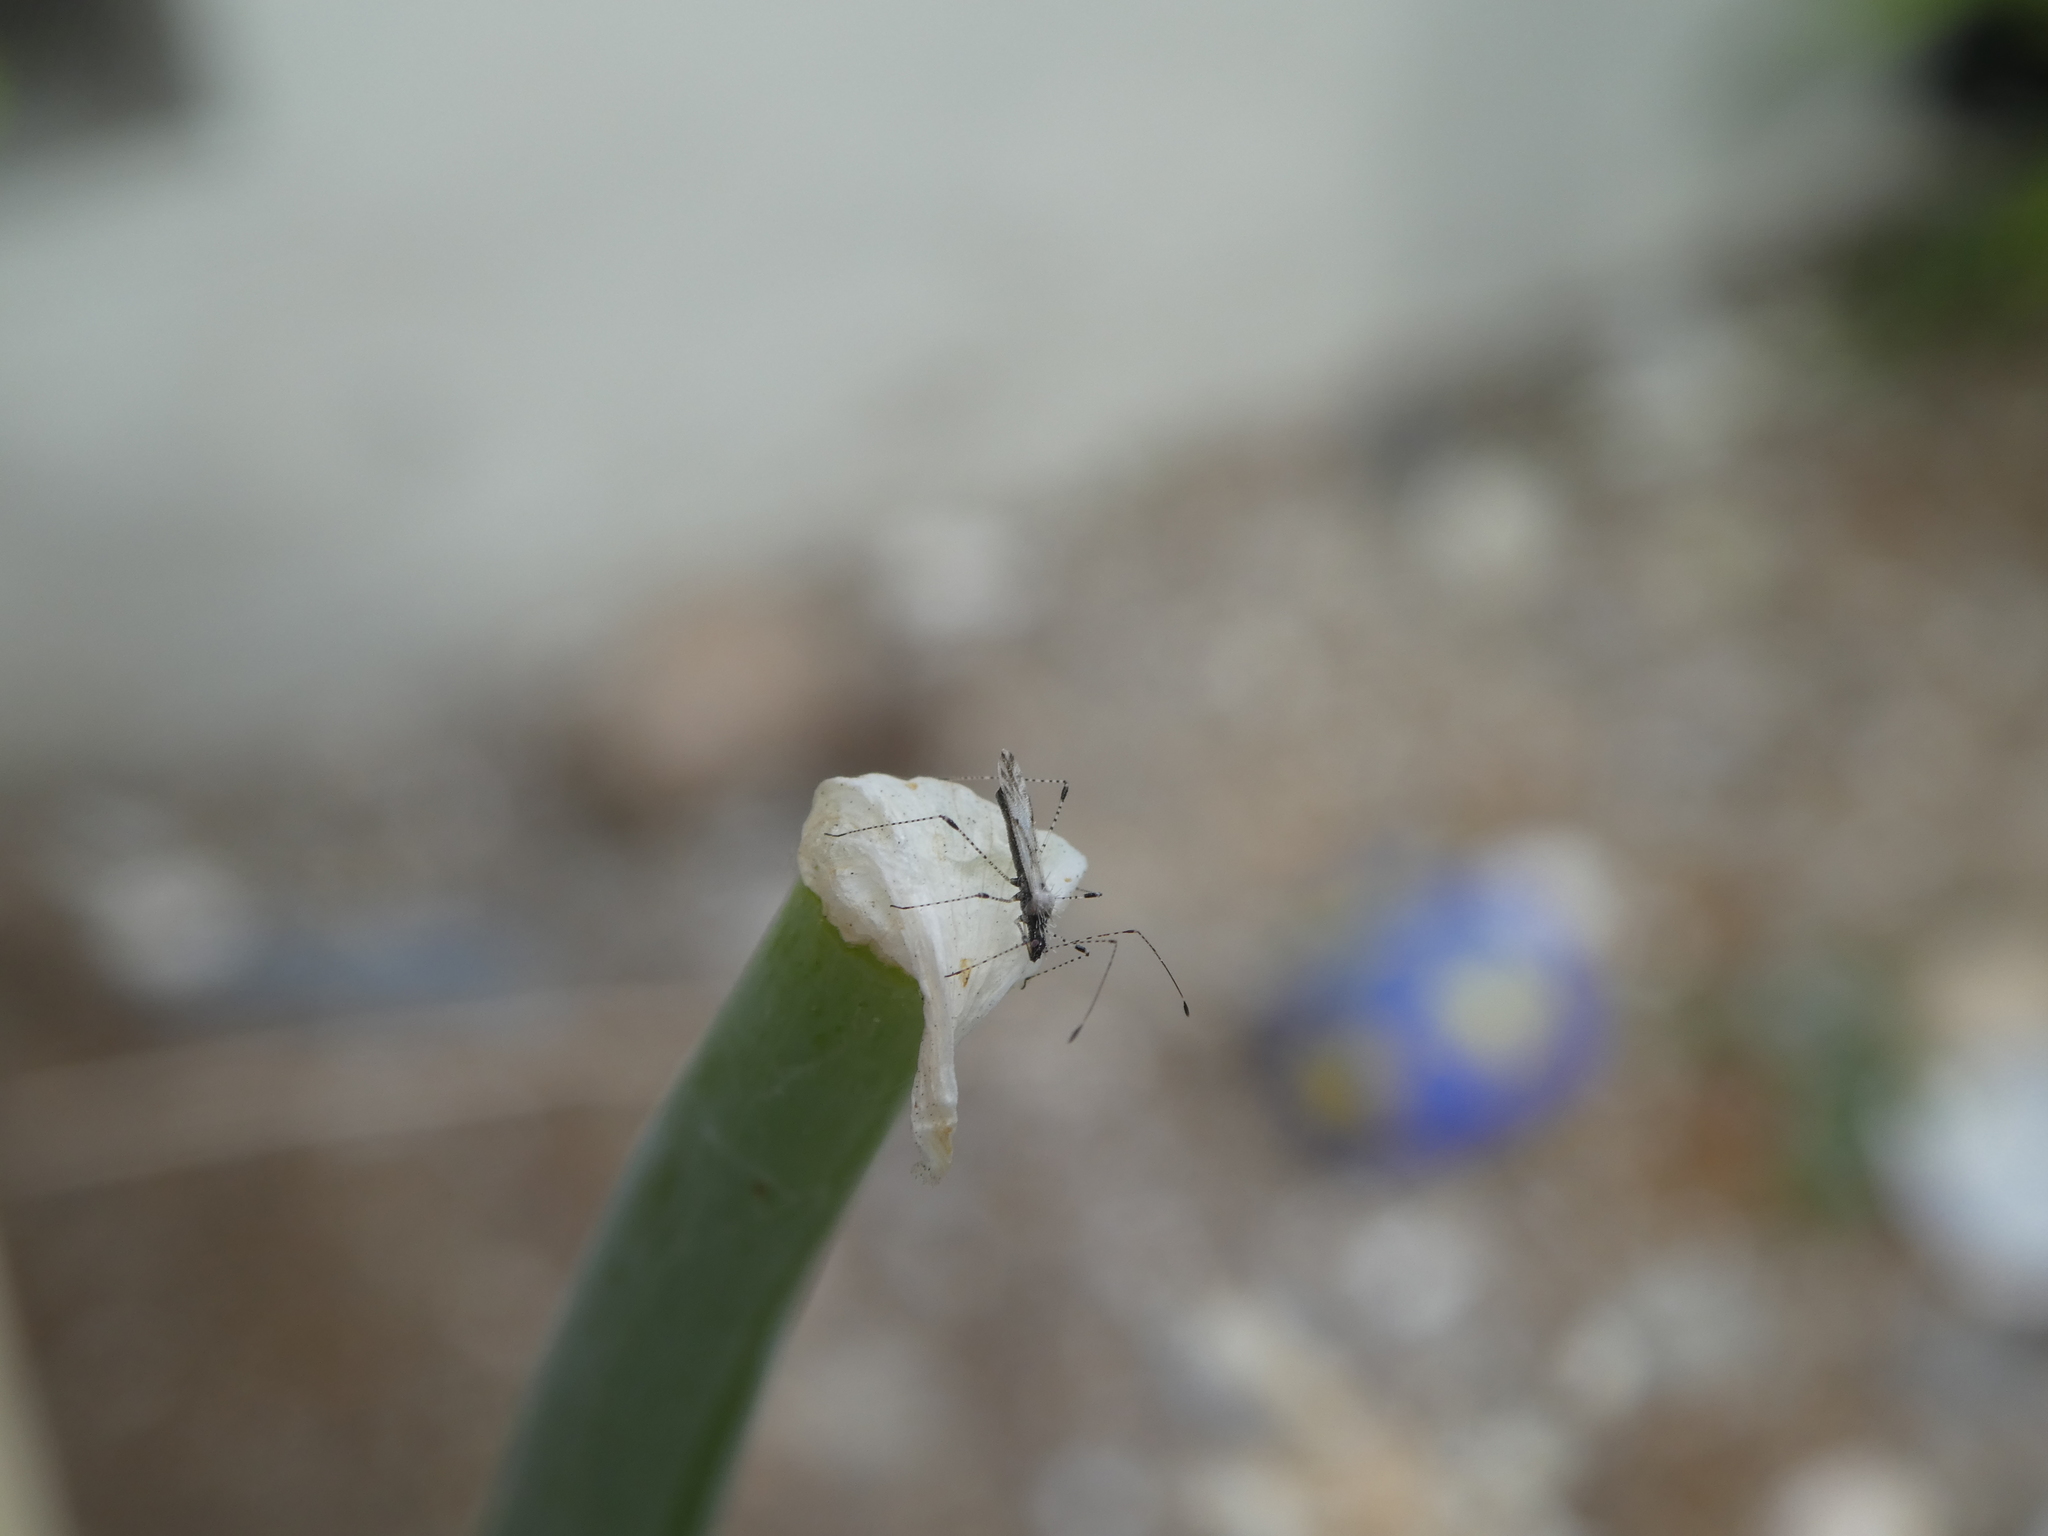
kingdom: Animalia
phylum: Arthropoda
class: Insecta
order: Hemiptera
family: Berytidae
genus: Pronotacantha
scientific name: Pronotacantha annulata
